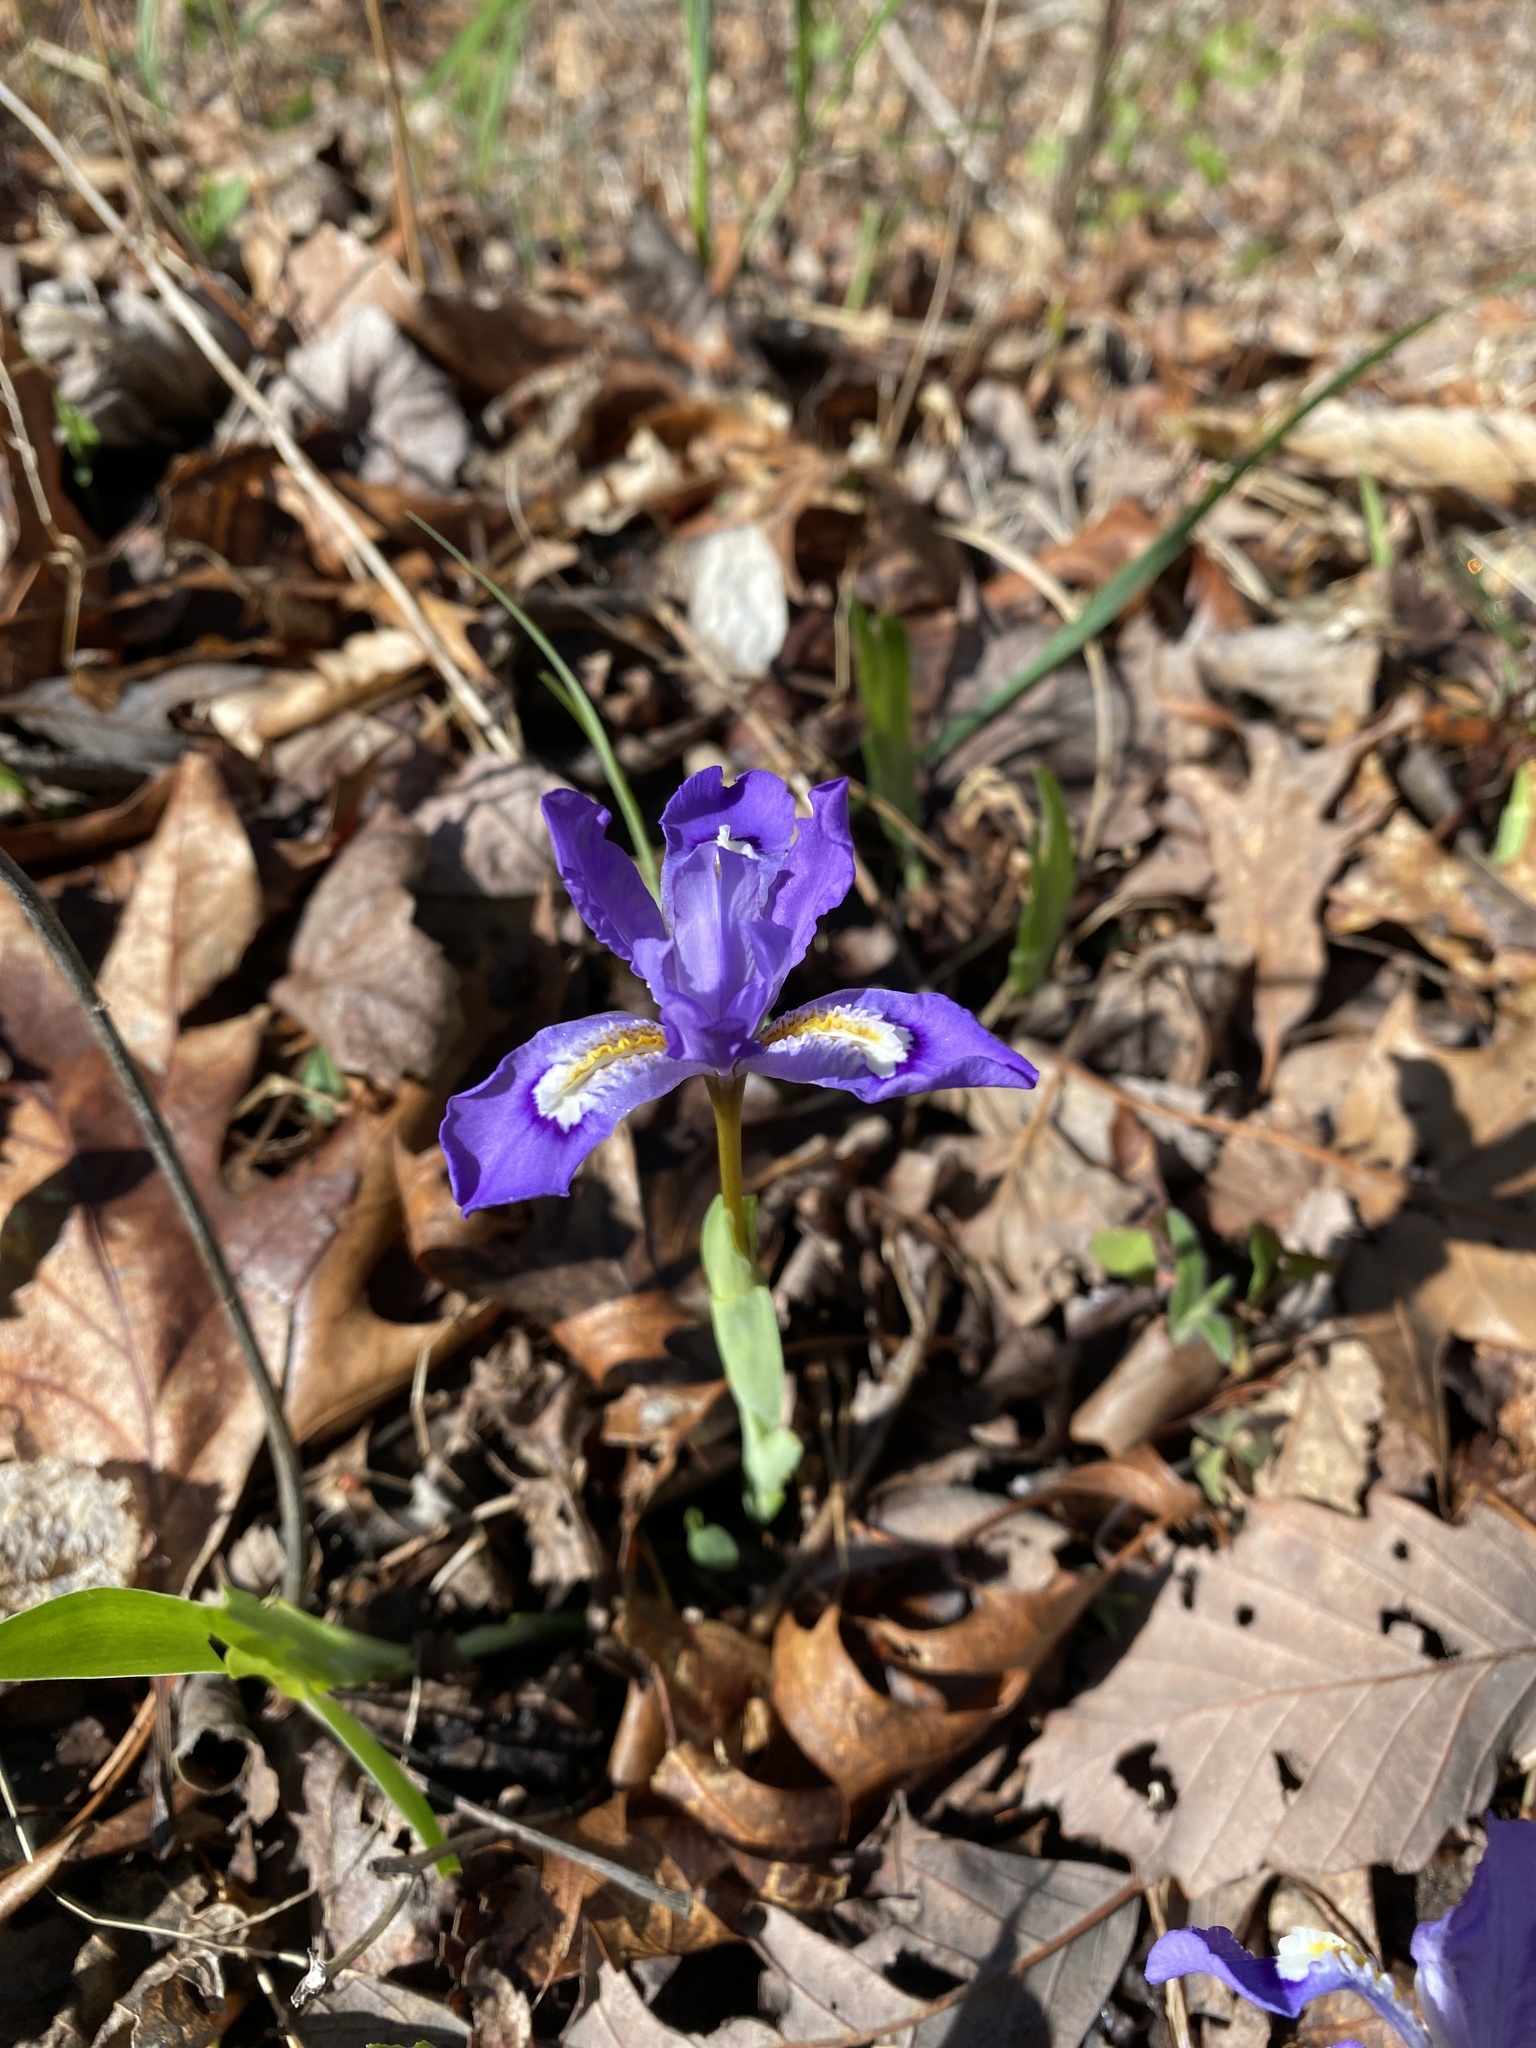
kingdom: Plantae
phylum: Tracheophyta
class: Liliopsida
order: Asparagales
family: Iridaceae
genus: Iris
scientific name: Iris cristata
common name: Crested iris
